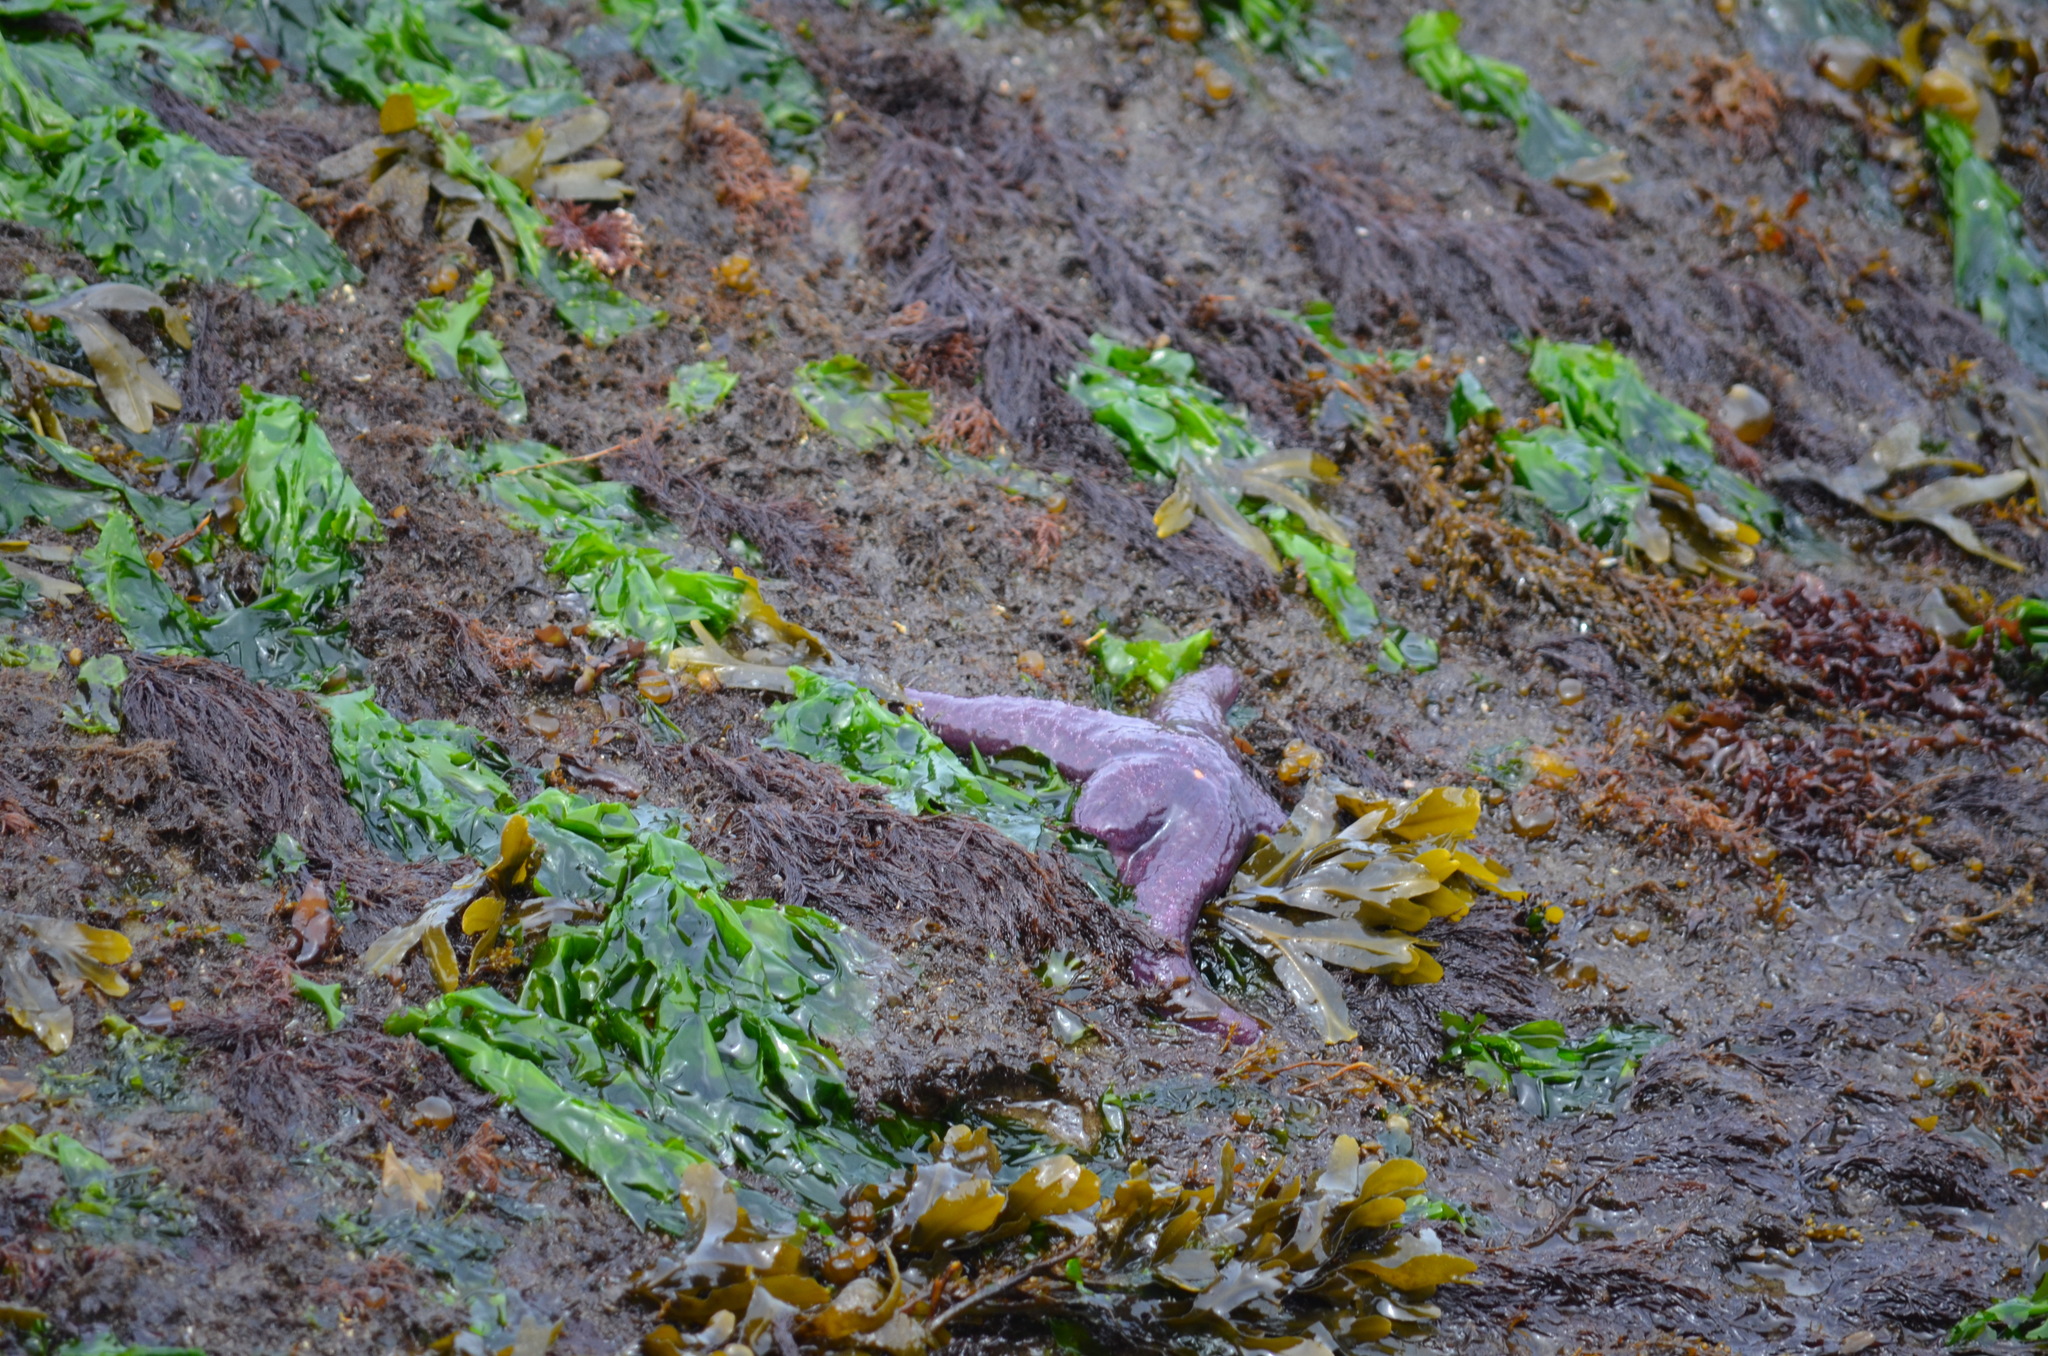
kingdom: Animalia
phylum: Echinodermata
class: Asteroidea
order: Forcipulatida
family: Asteriidae
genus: Pisaster
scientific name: Pisaster ochraceus
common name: Ochre stars
